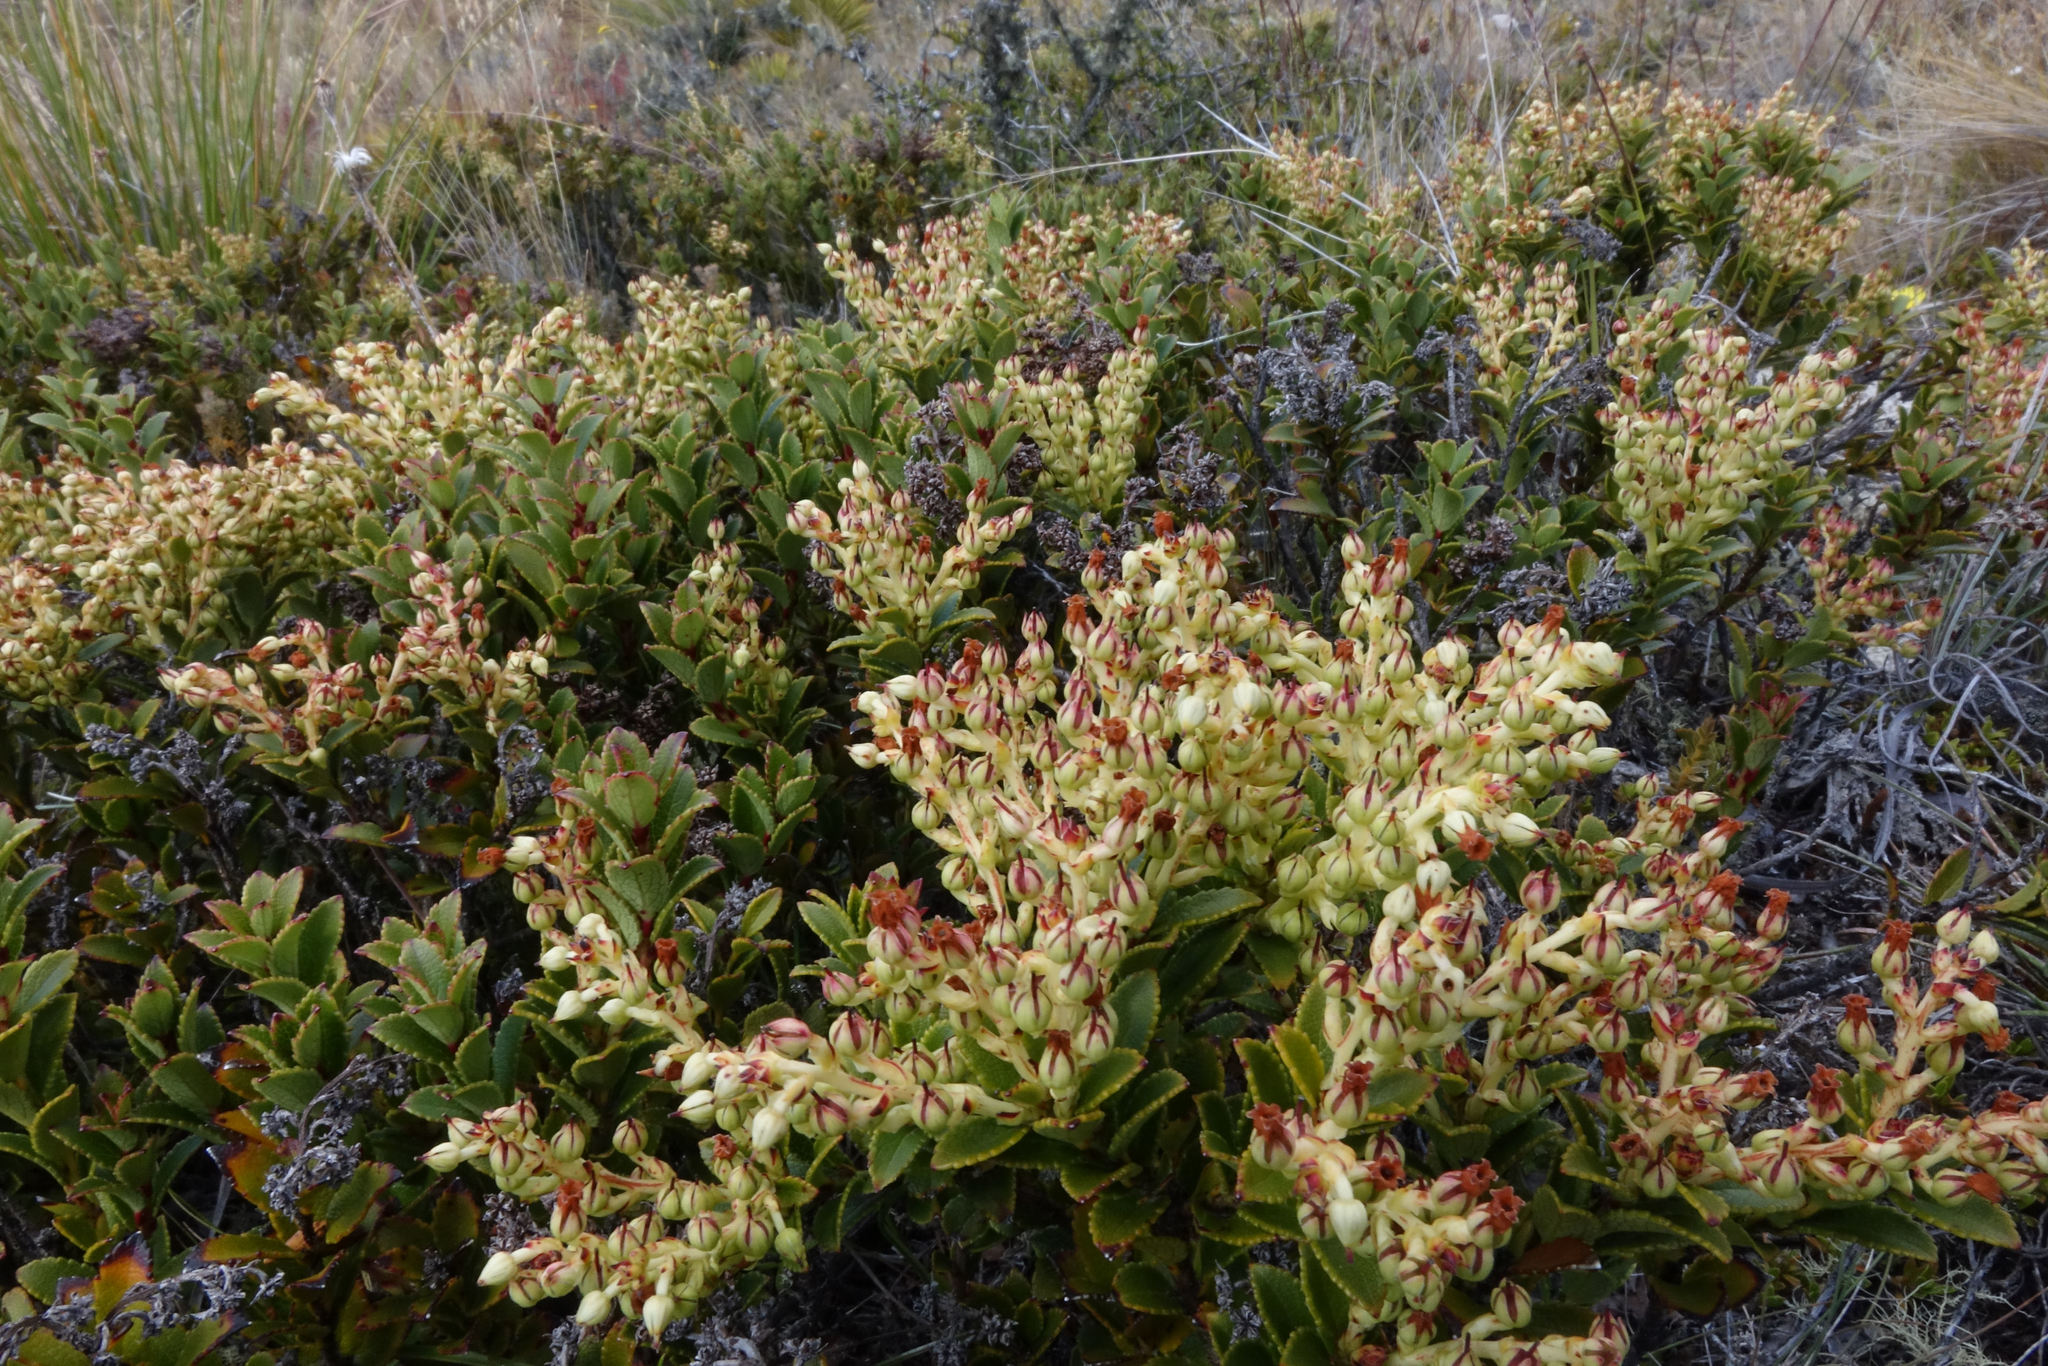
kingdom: Plantae
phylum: Tracheophyta
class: Magnoliopsida
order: Ericales
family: Ericaceae
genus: Gaultheria
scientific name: Gaultheria crassa
